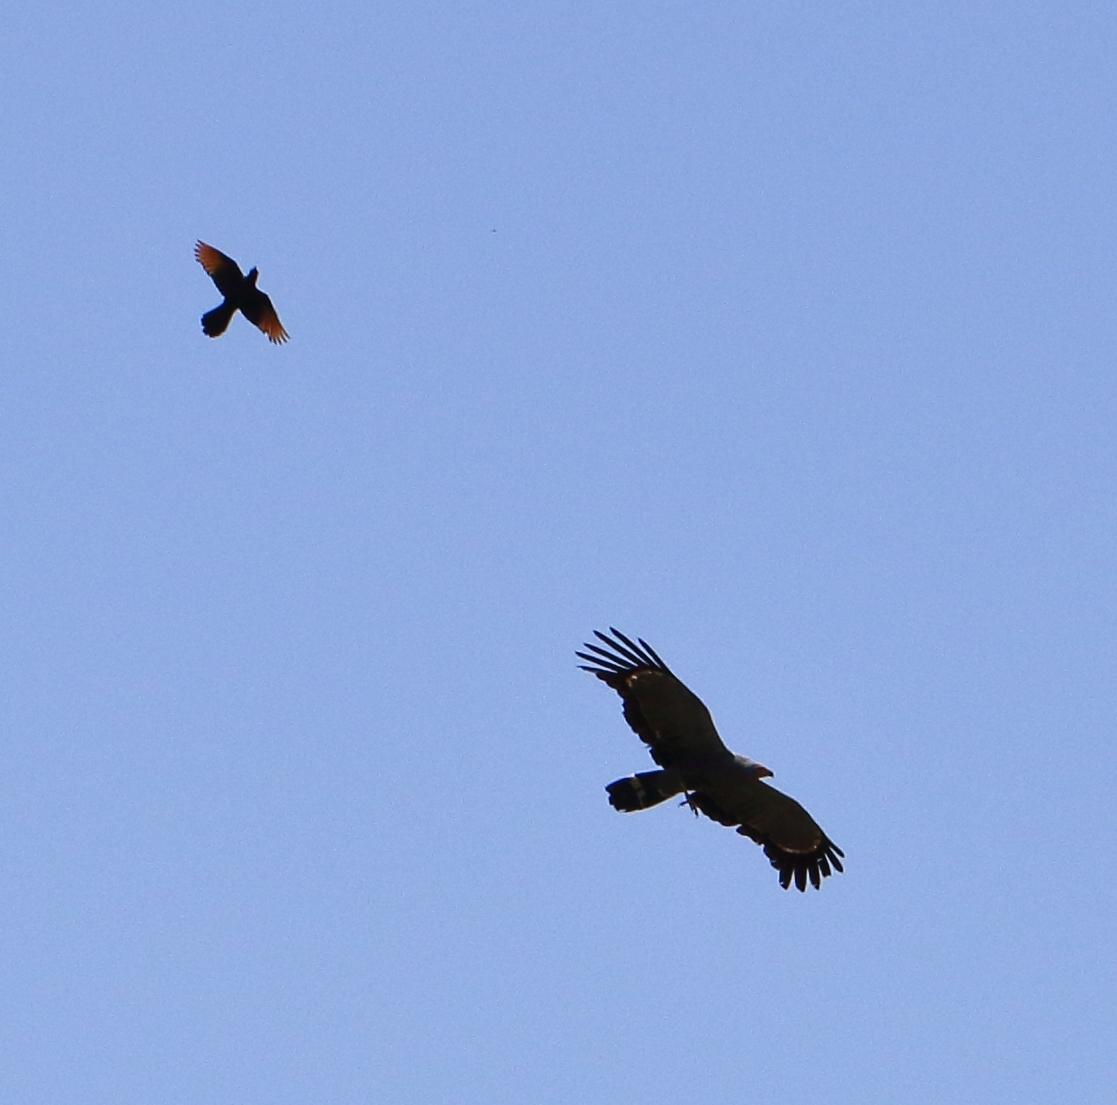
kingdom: Animalia
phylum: Chordata
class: Aves
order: Passeriformes
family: Sturnidae
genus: Onychognathus
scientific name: Onychognathus morio
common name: Red-winged starling
